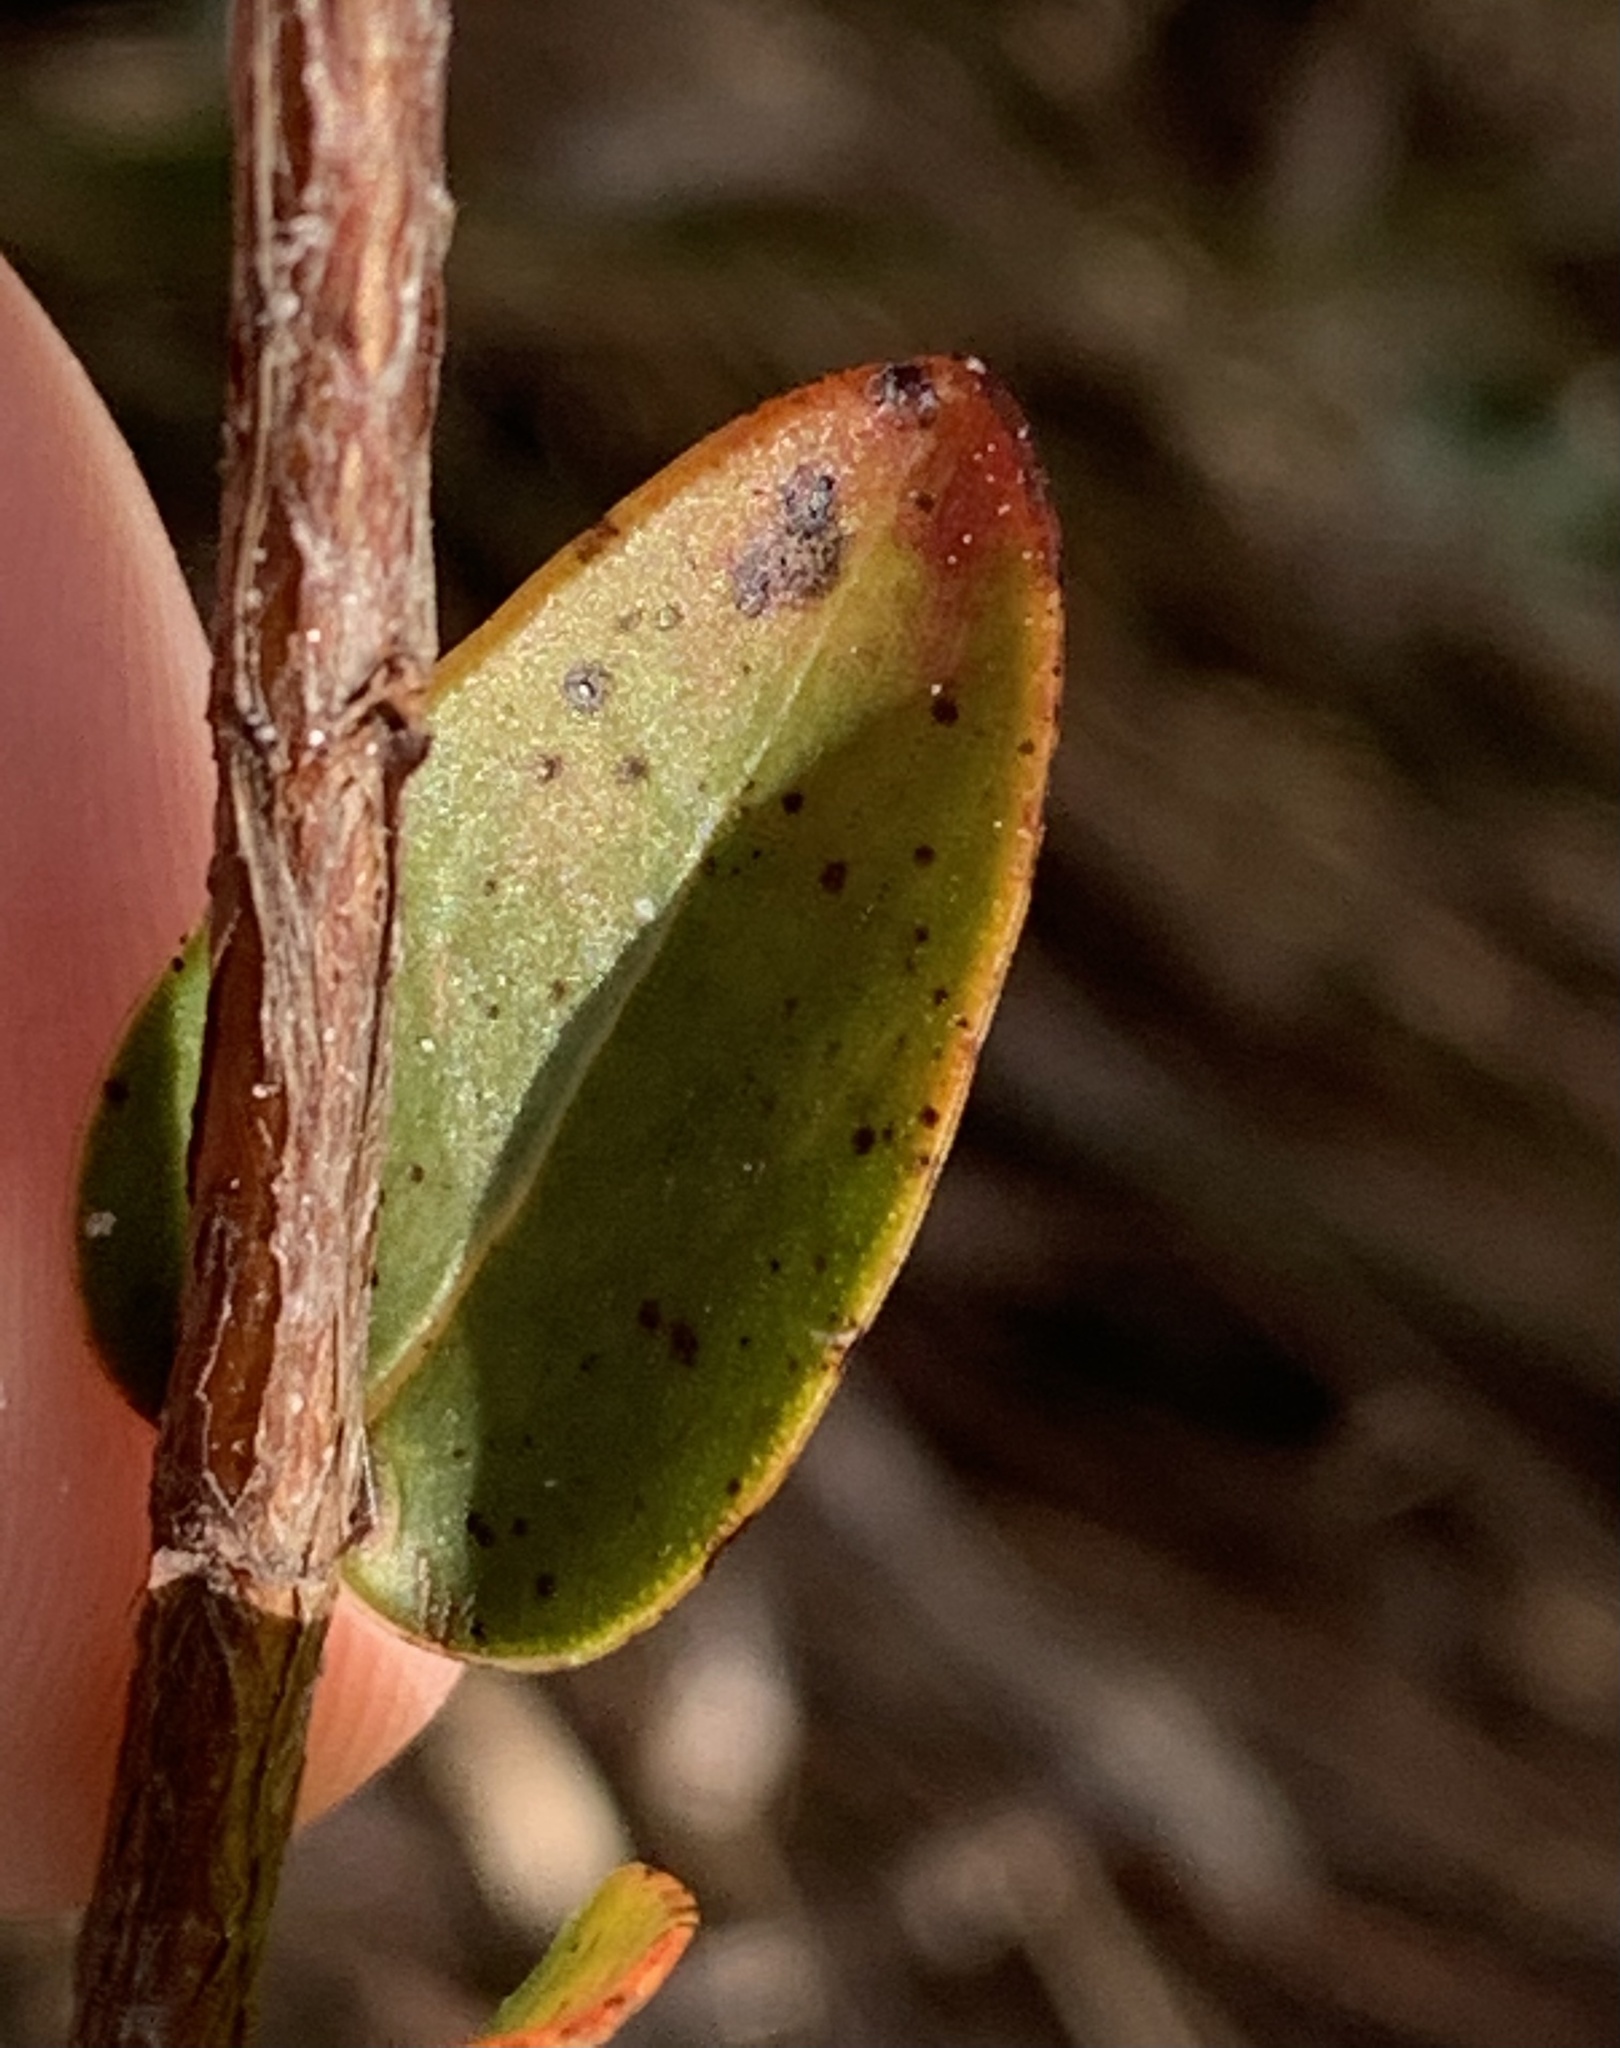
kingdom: Plantae
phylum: Tracheophyta
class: Magnoliopsida
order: Malpighiales
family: Hypericaceae
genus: Hypericum
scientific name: Hypericum tetrapetalum
